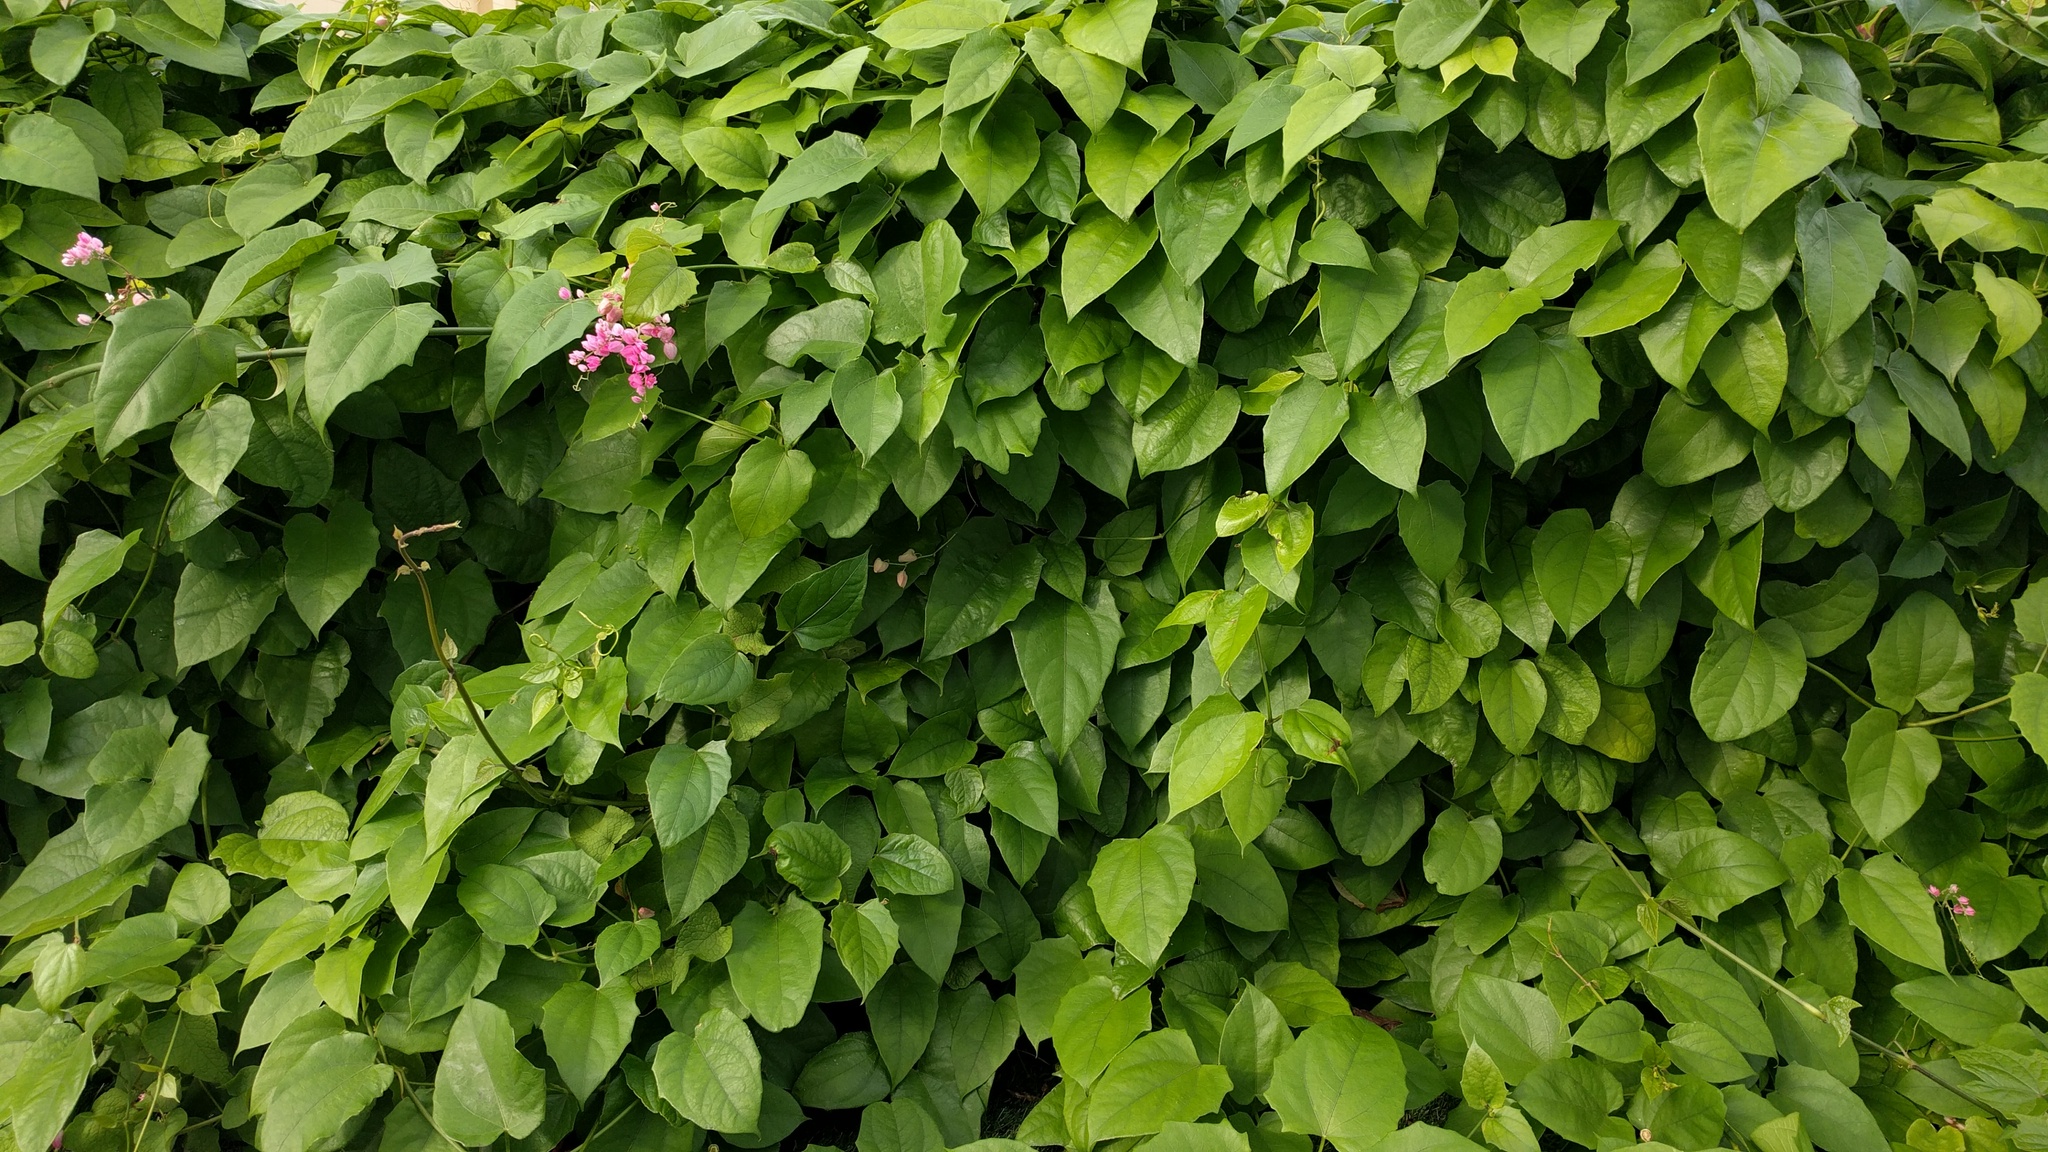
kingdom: Plantae
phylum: Tracheophyta
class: Magnoliopsida
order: Caryophyllales
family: Polygonaceae
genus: Antigonon
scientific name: Antigonon leptopus
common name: Coral vine
